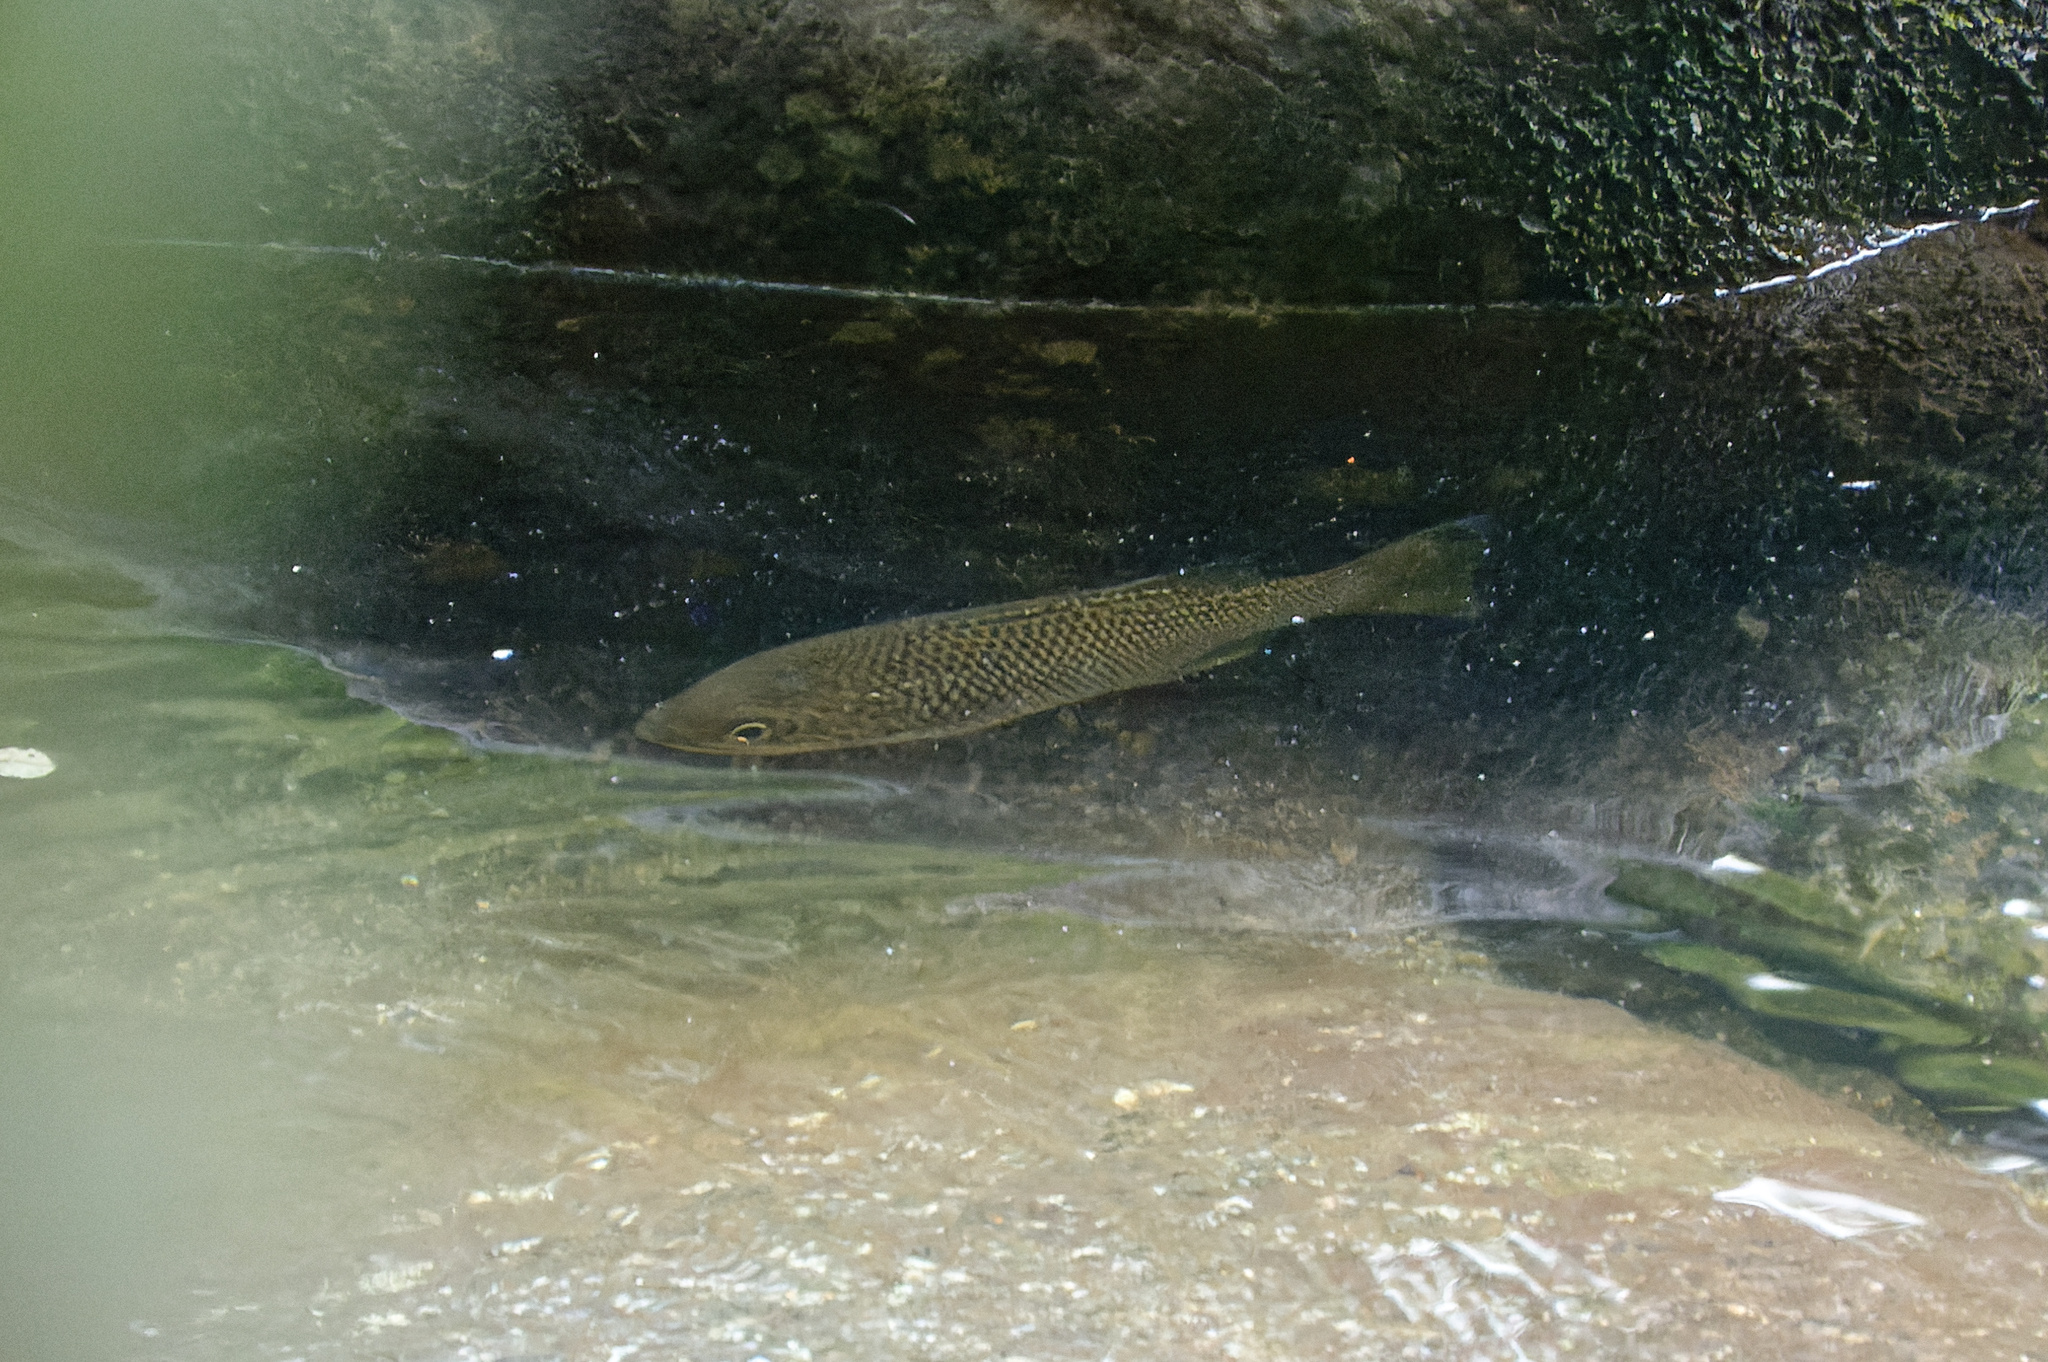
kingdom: Animalia
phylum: Chordata
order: Perciformes
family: Kuhliidae
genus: Kuhlia
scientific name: Kuhlia rupestris
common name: Rock flagtail
